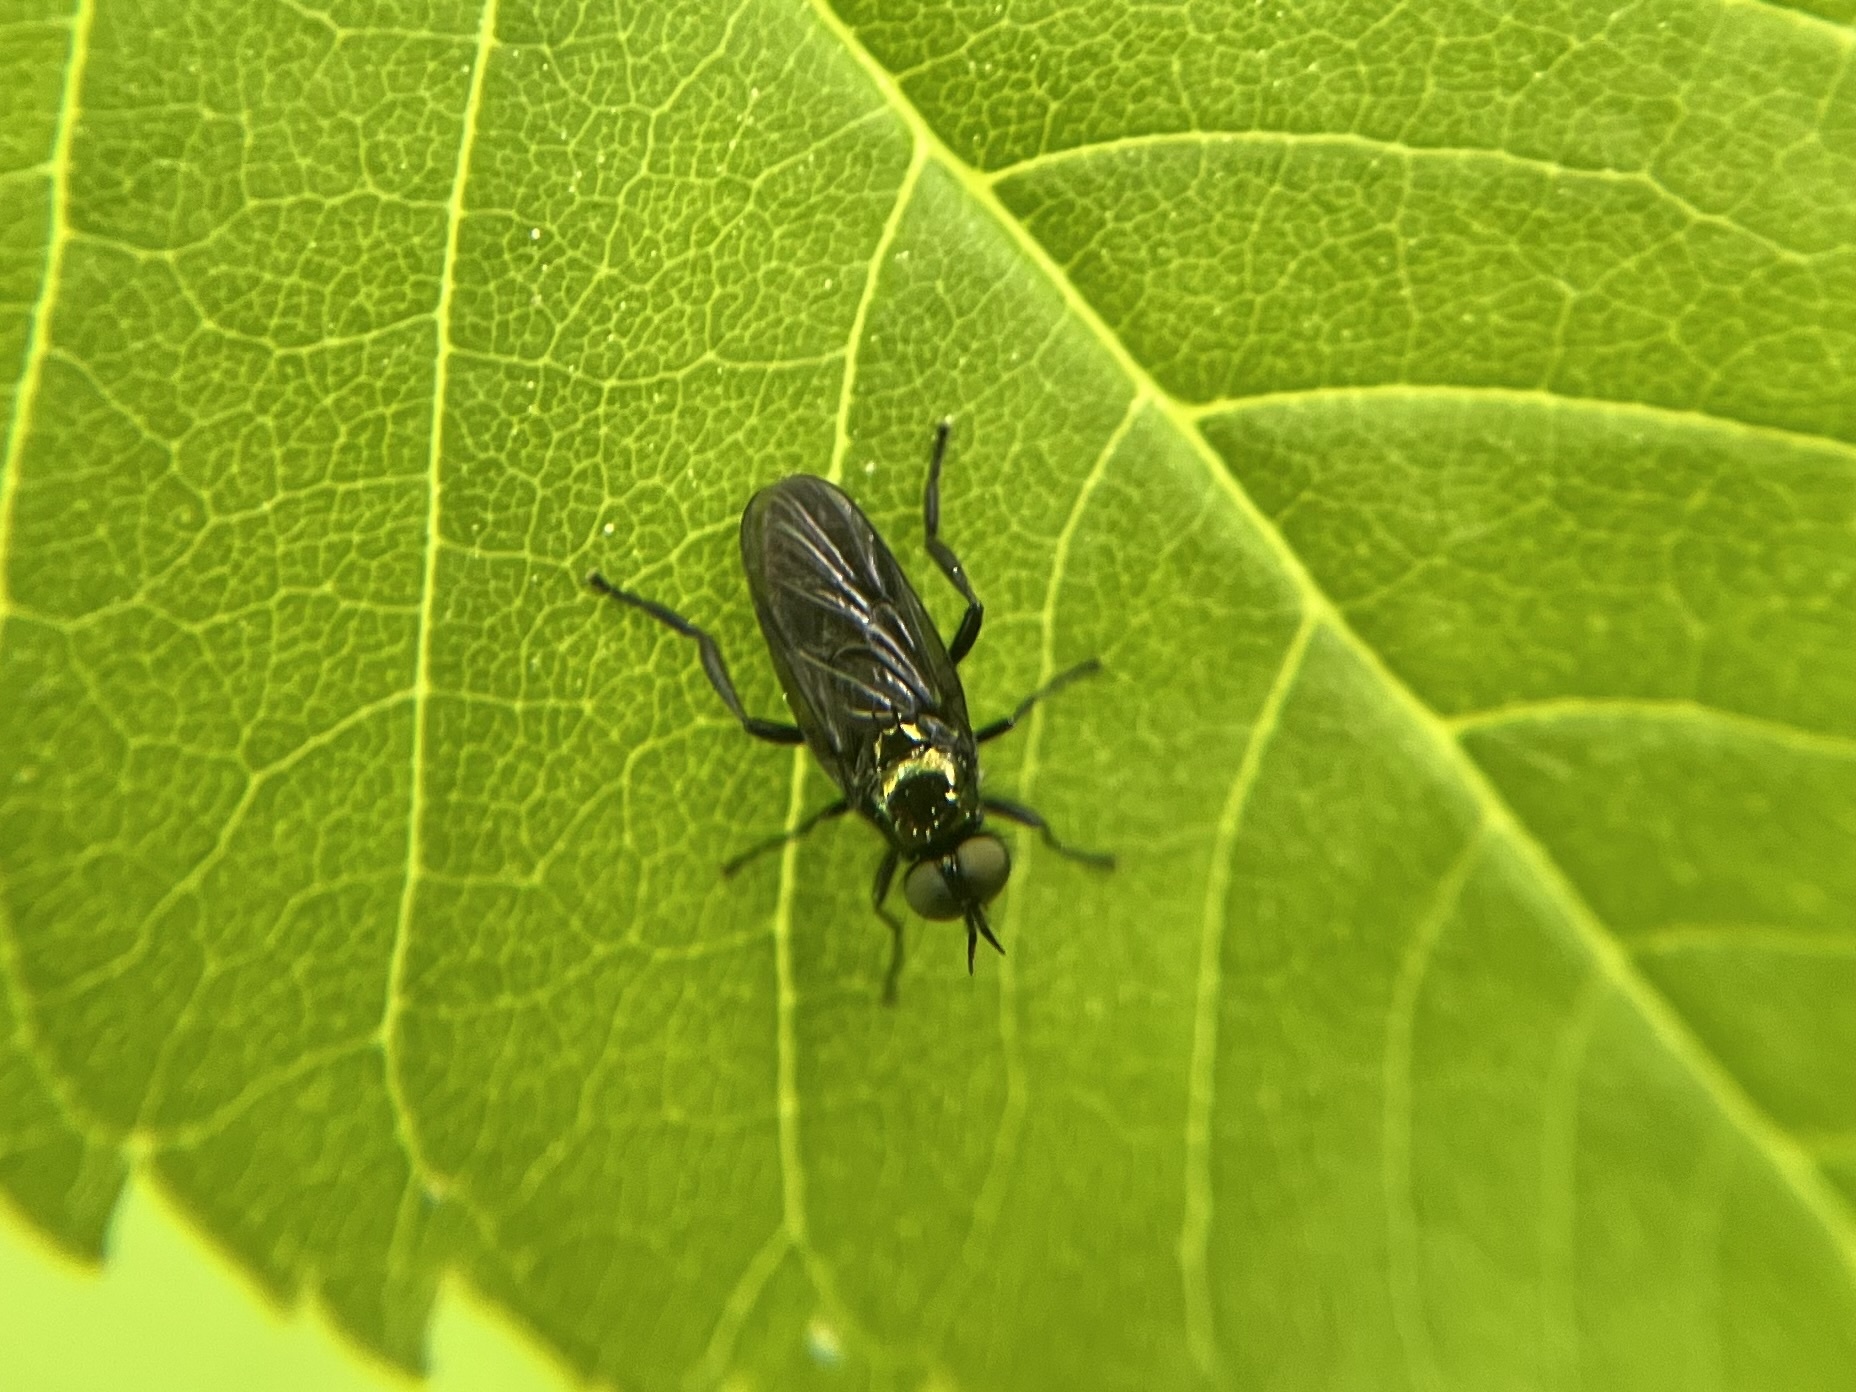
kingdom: Animalia
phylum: Arthropoda
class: Insecta
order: Diptera
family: Stratiomyidae
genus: Actina
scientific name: Actina chalybea
